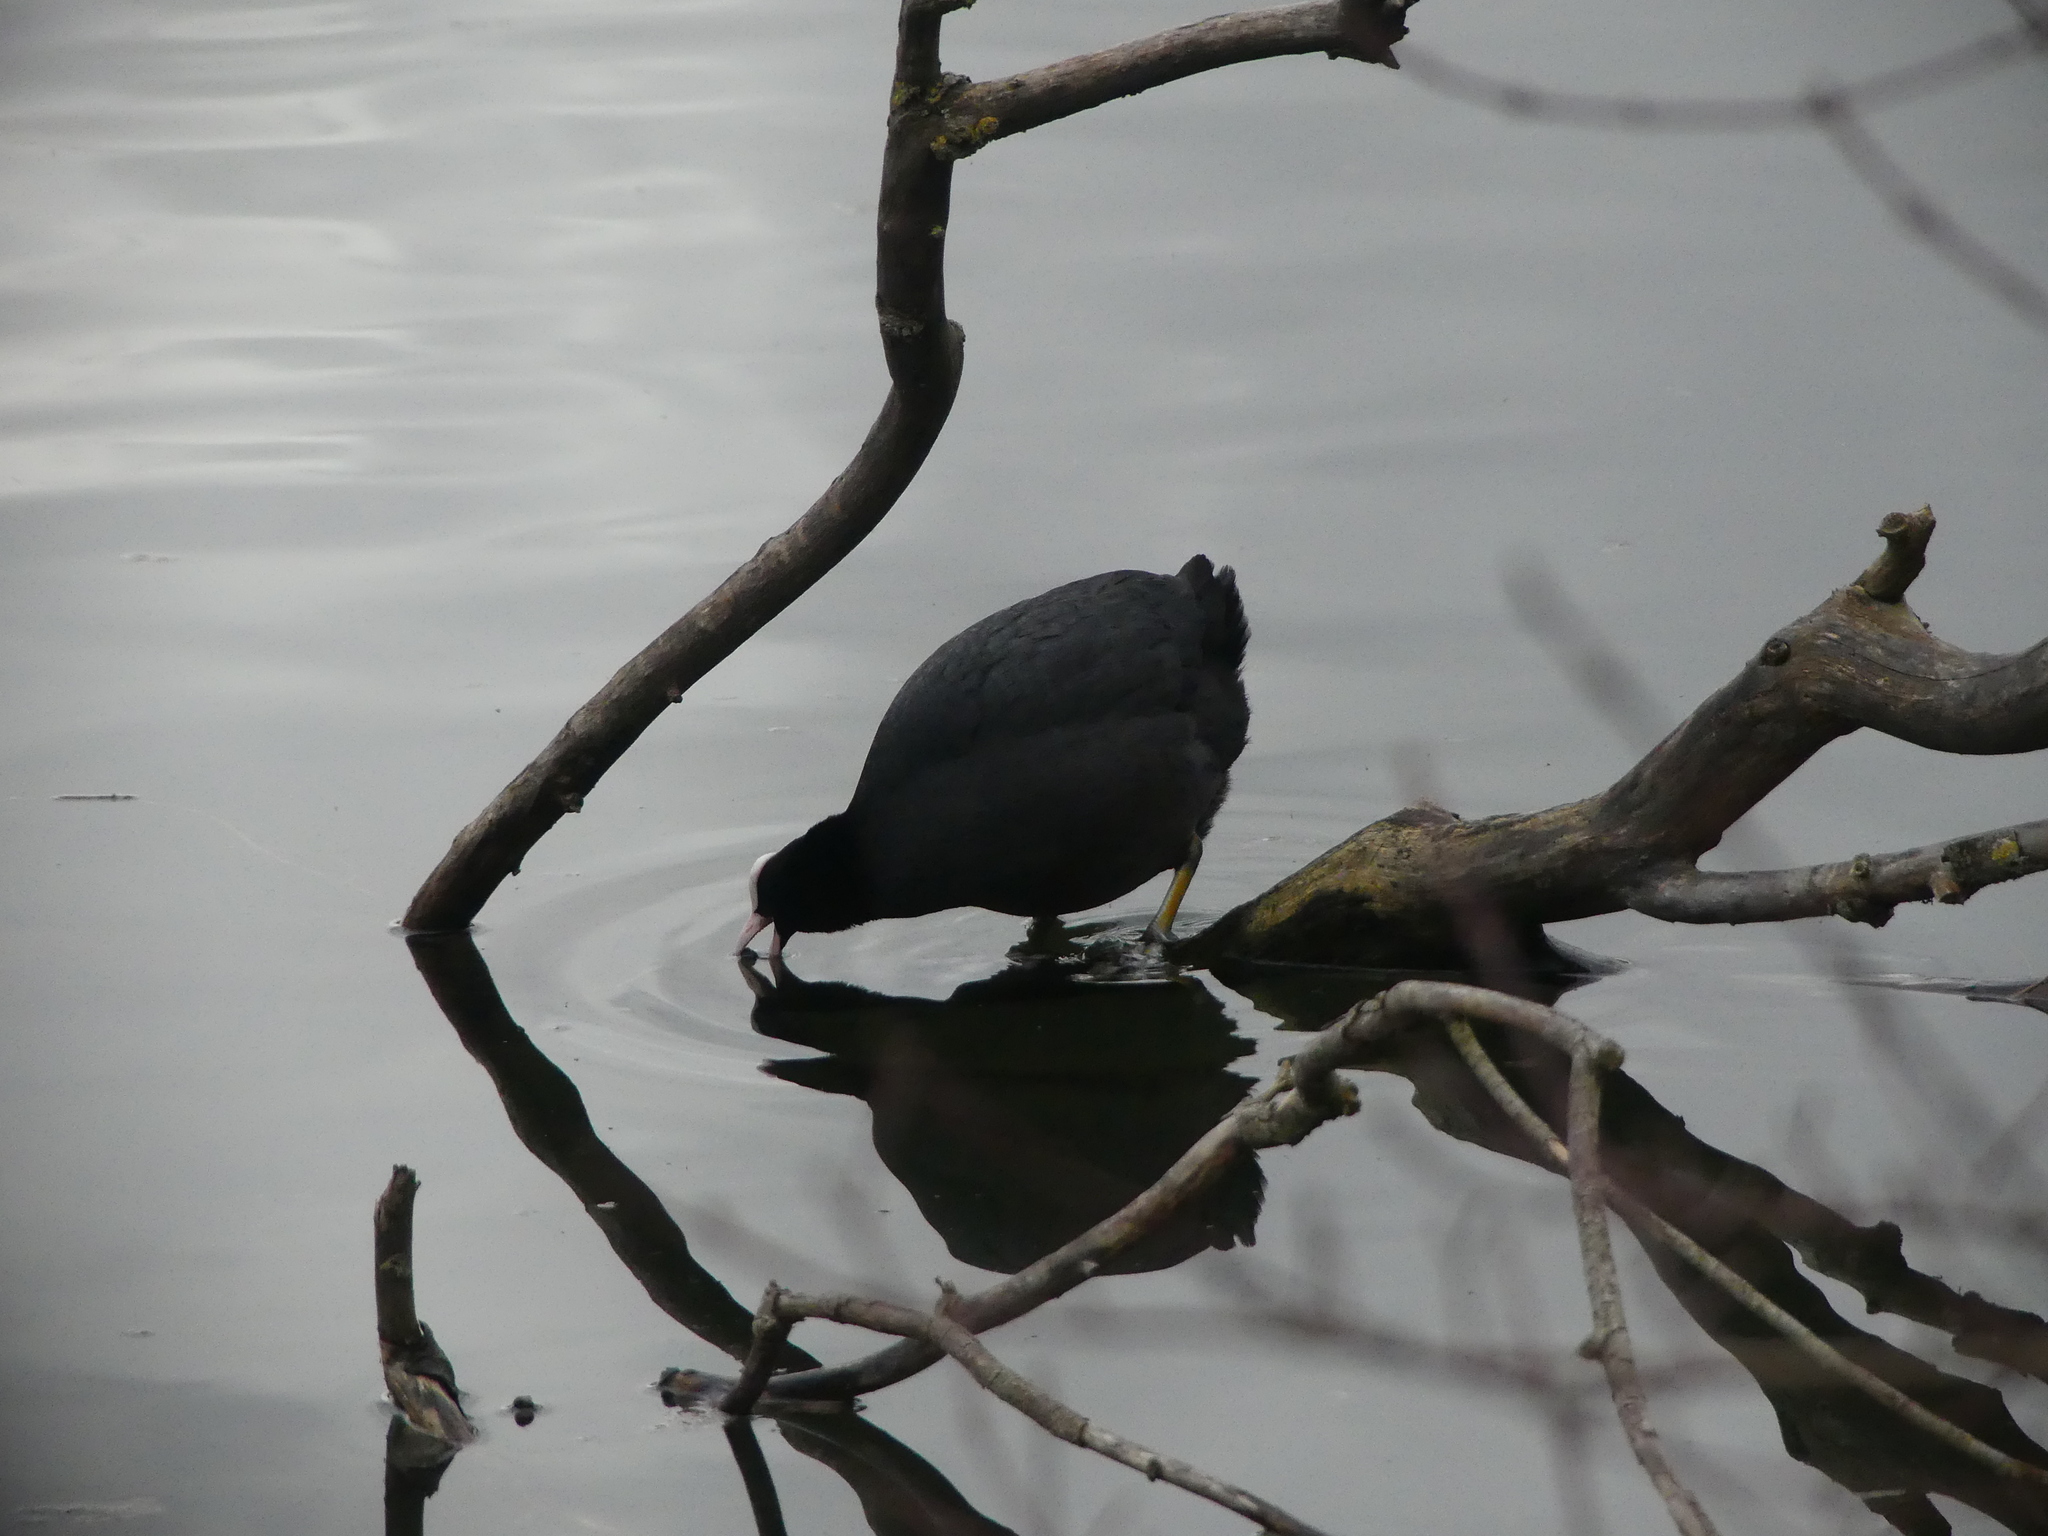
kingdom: Animalia
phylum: Chordata
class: Aves
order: Gruiformes
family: Rallidae
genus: Fulica
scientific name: Fulica atra
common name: Eurasian coot
